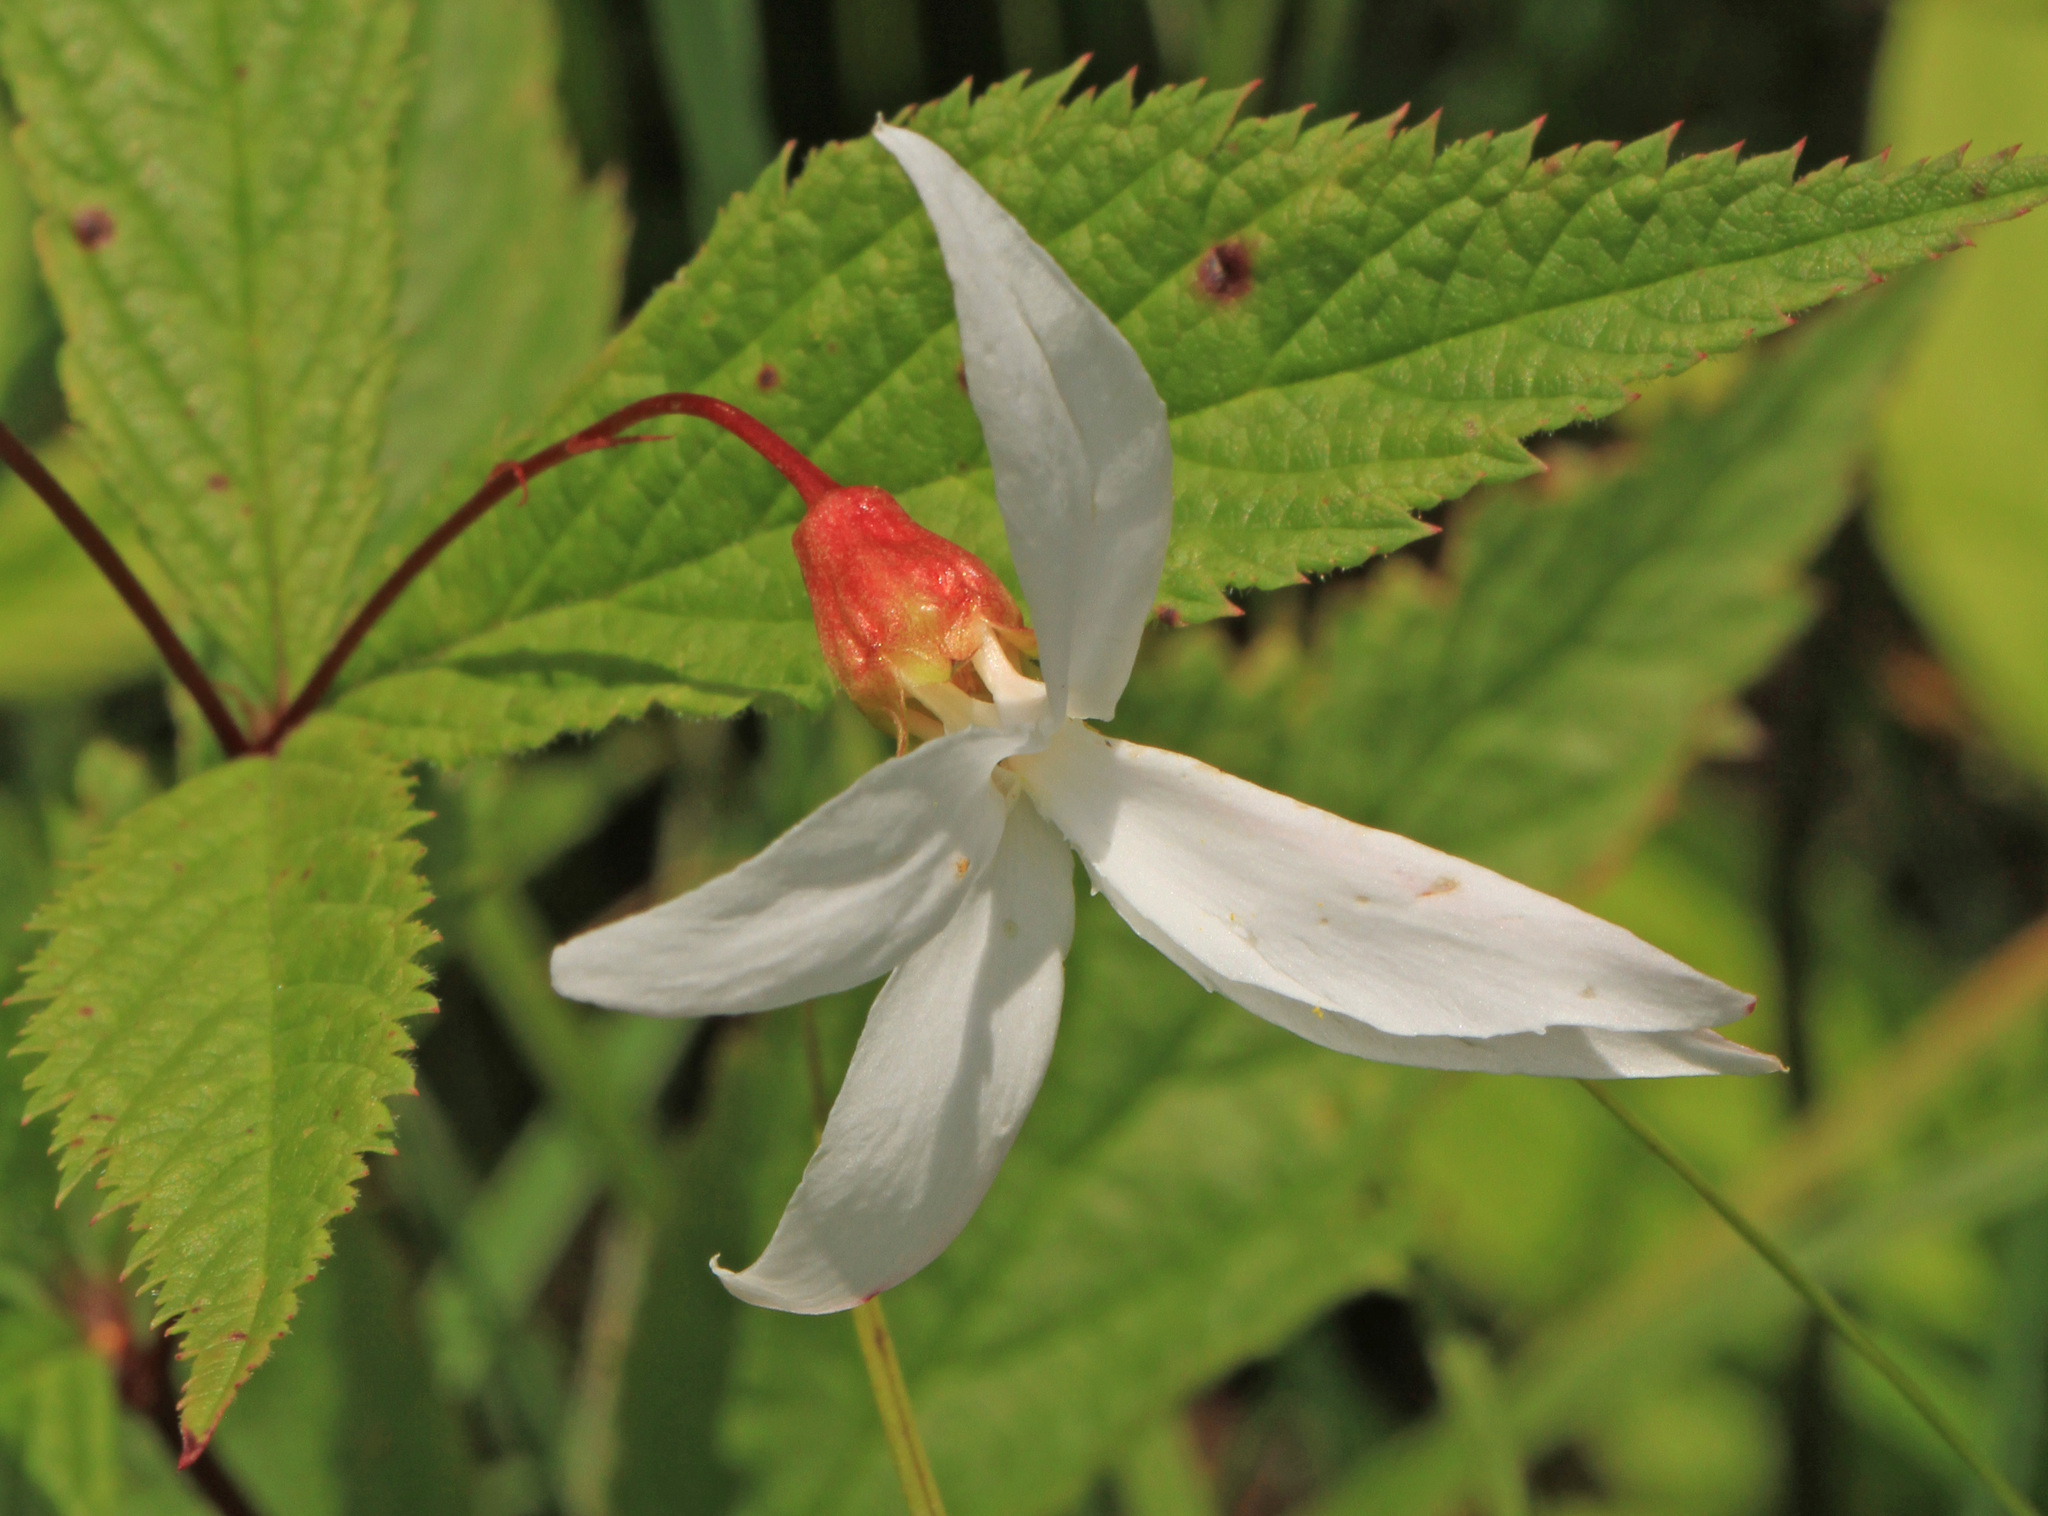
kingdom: Plantae
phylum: Tracheophyta
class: Magnoliopsida
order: Rosales
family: Rosaceae
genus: Gillenia
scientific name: Gillenia trifoliata
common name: Bowman's-root
